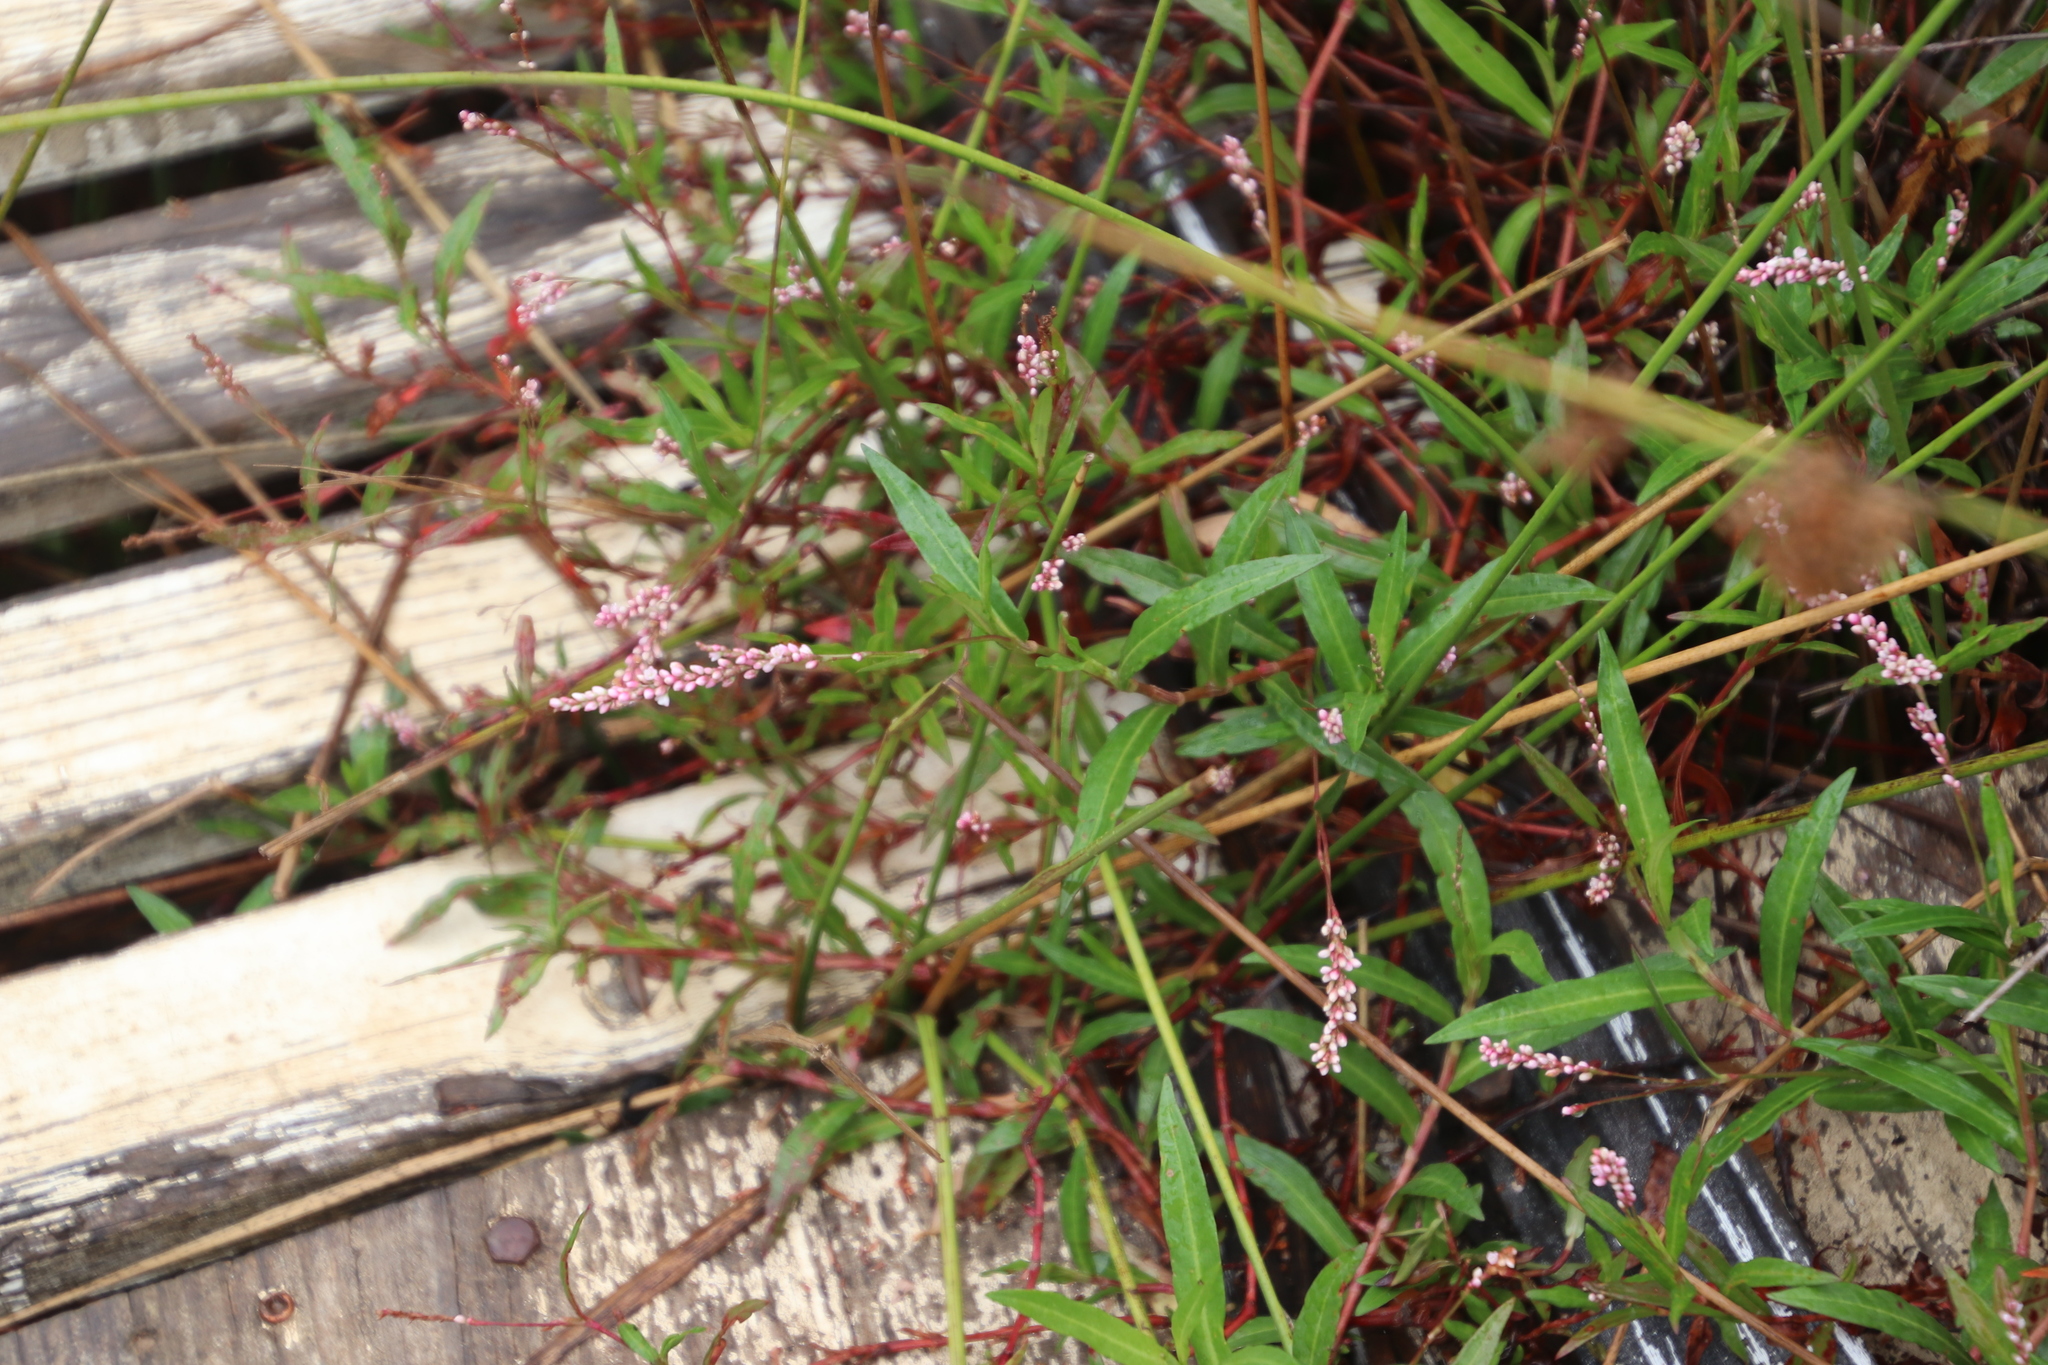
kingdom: Plantae
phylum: Tracheophyta
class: Magnoliopsida
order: Caryophyllales
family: Polygonaceae
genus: Persicaria
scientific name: Persicaria decipiens
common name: Willow-weed
